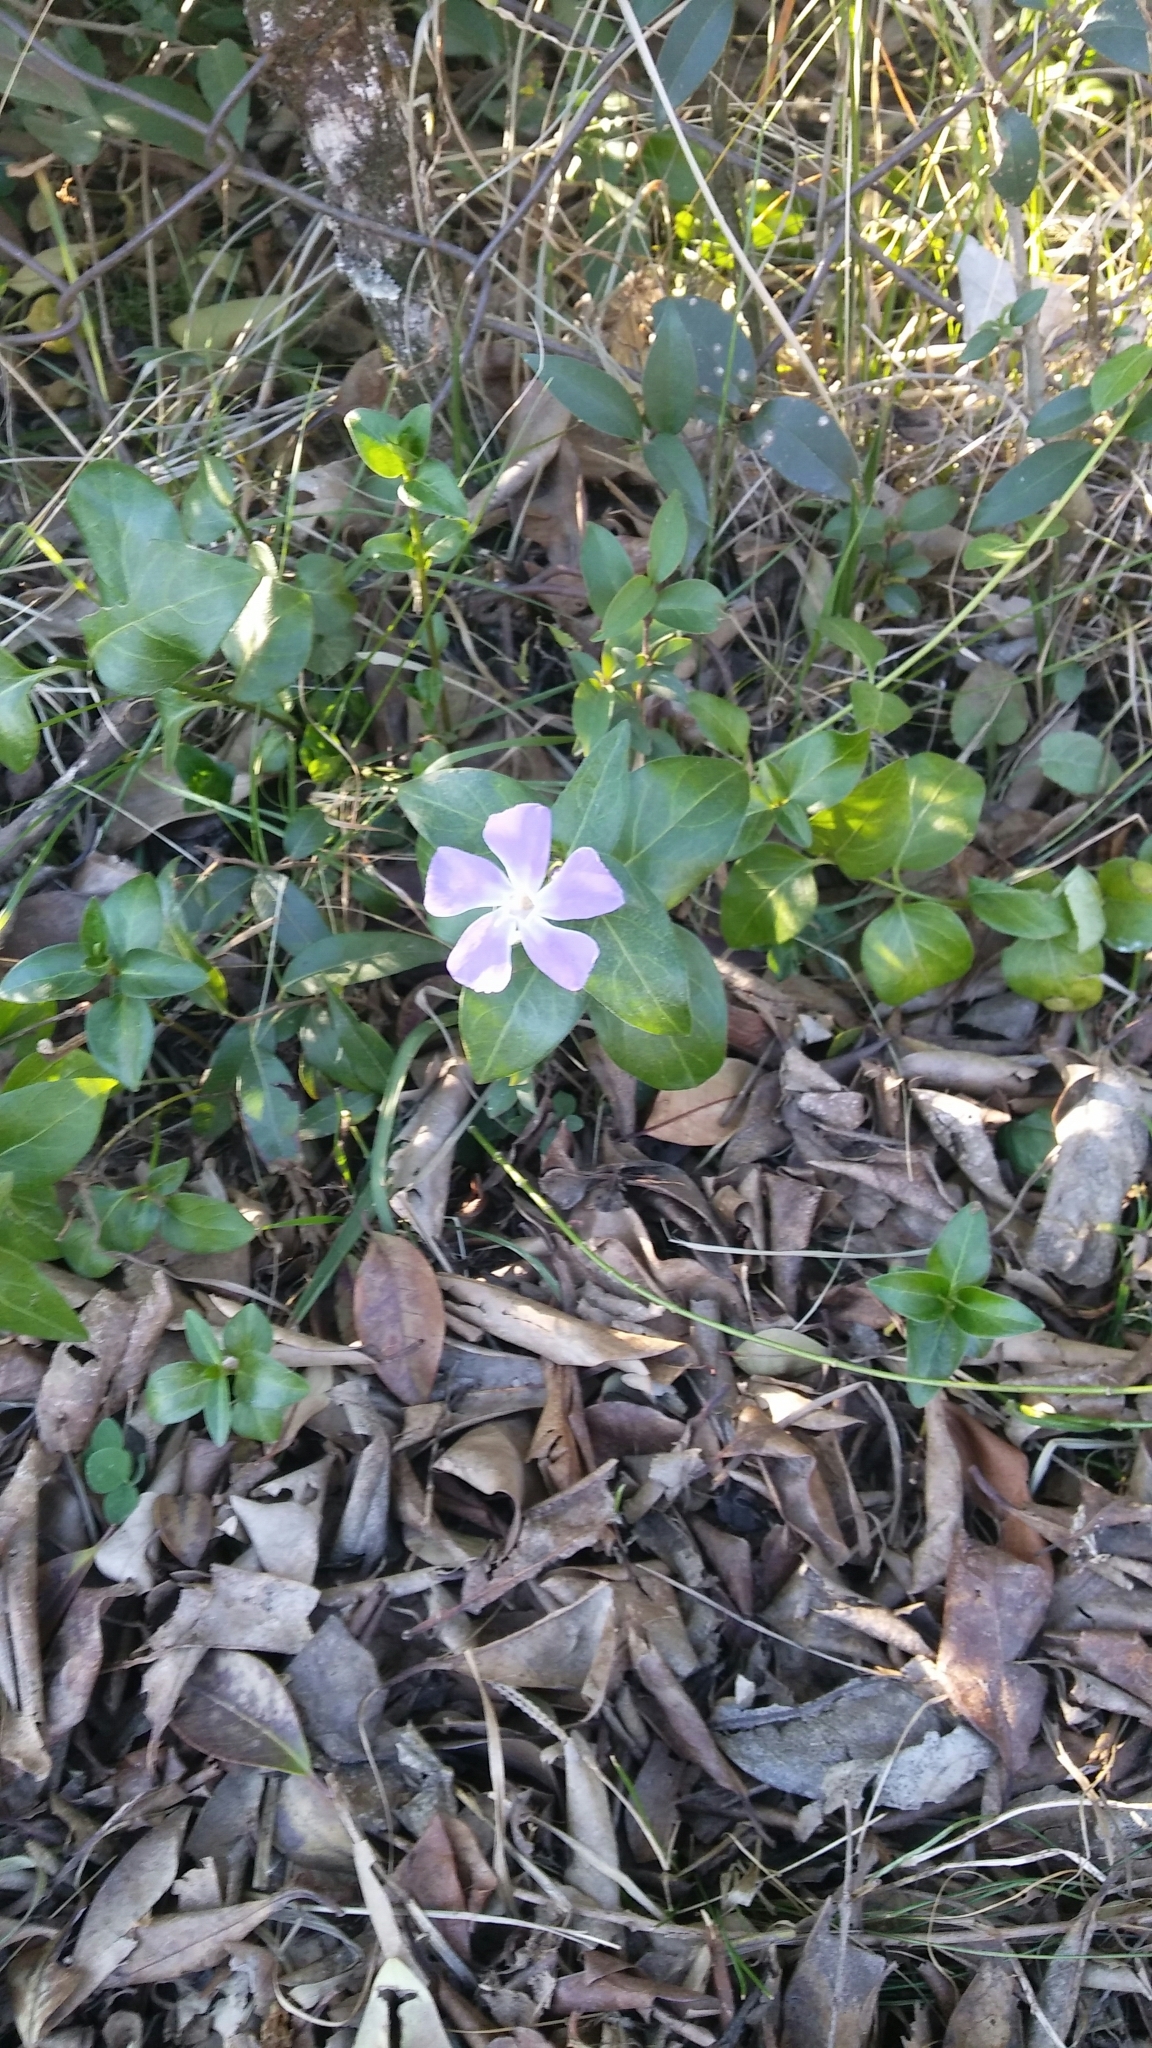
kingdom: Plantae
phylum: Tracheophyta
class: Magnoliopsida
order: Gentianales
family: Apocynaceae
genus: Vinca
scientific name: Vinca major
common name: Greater periwinkle
